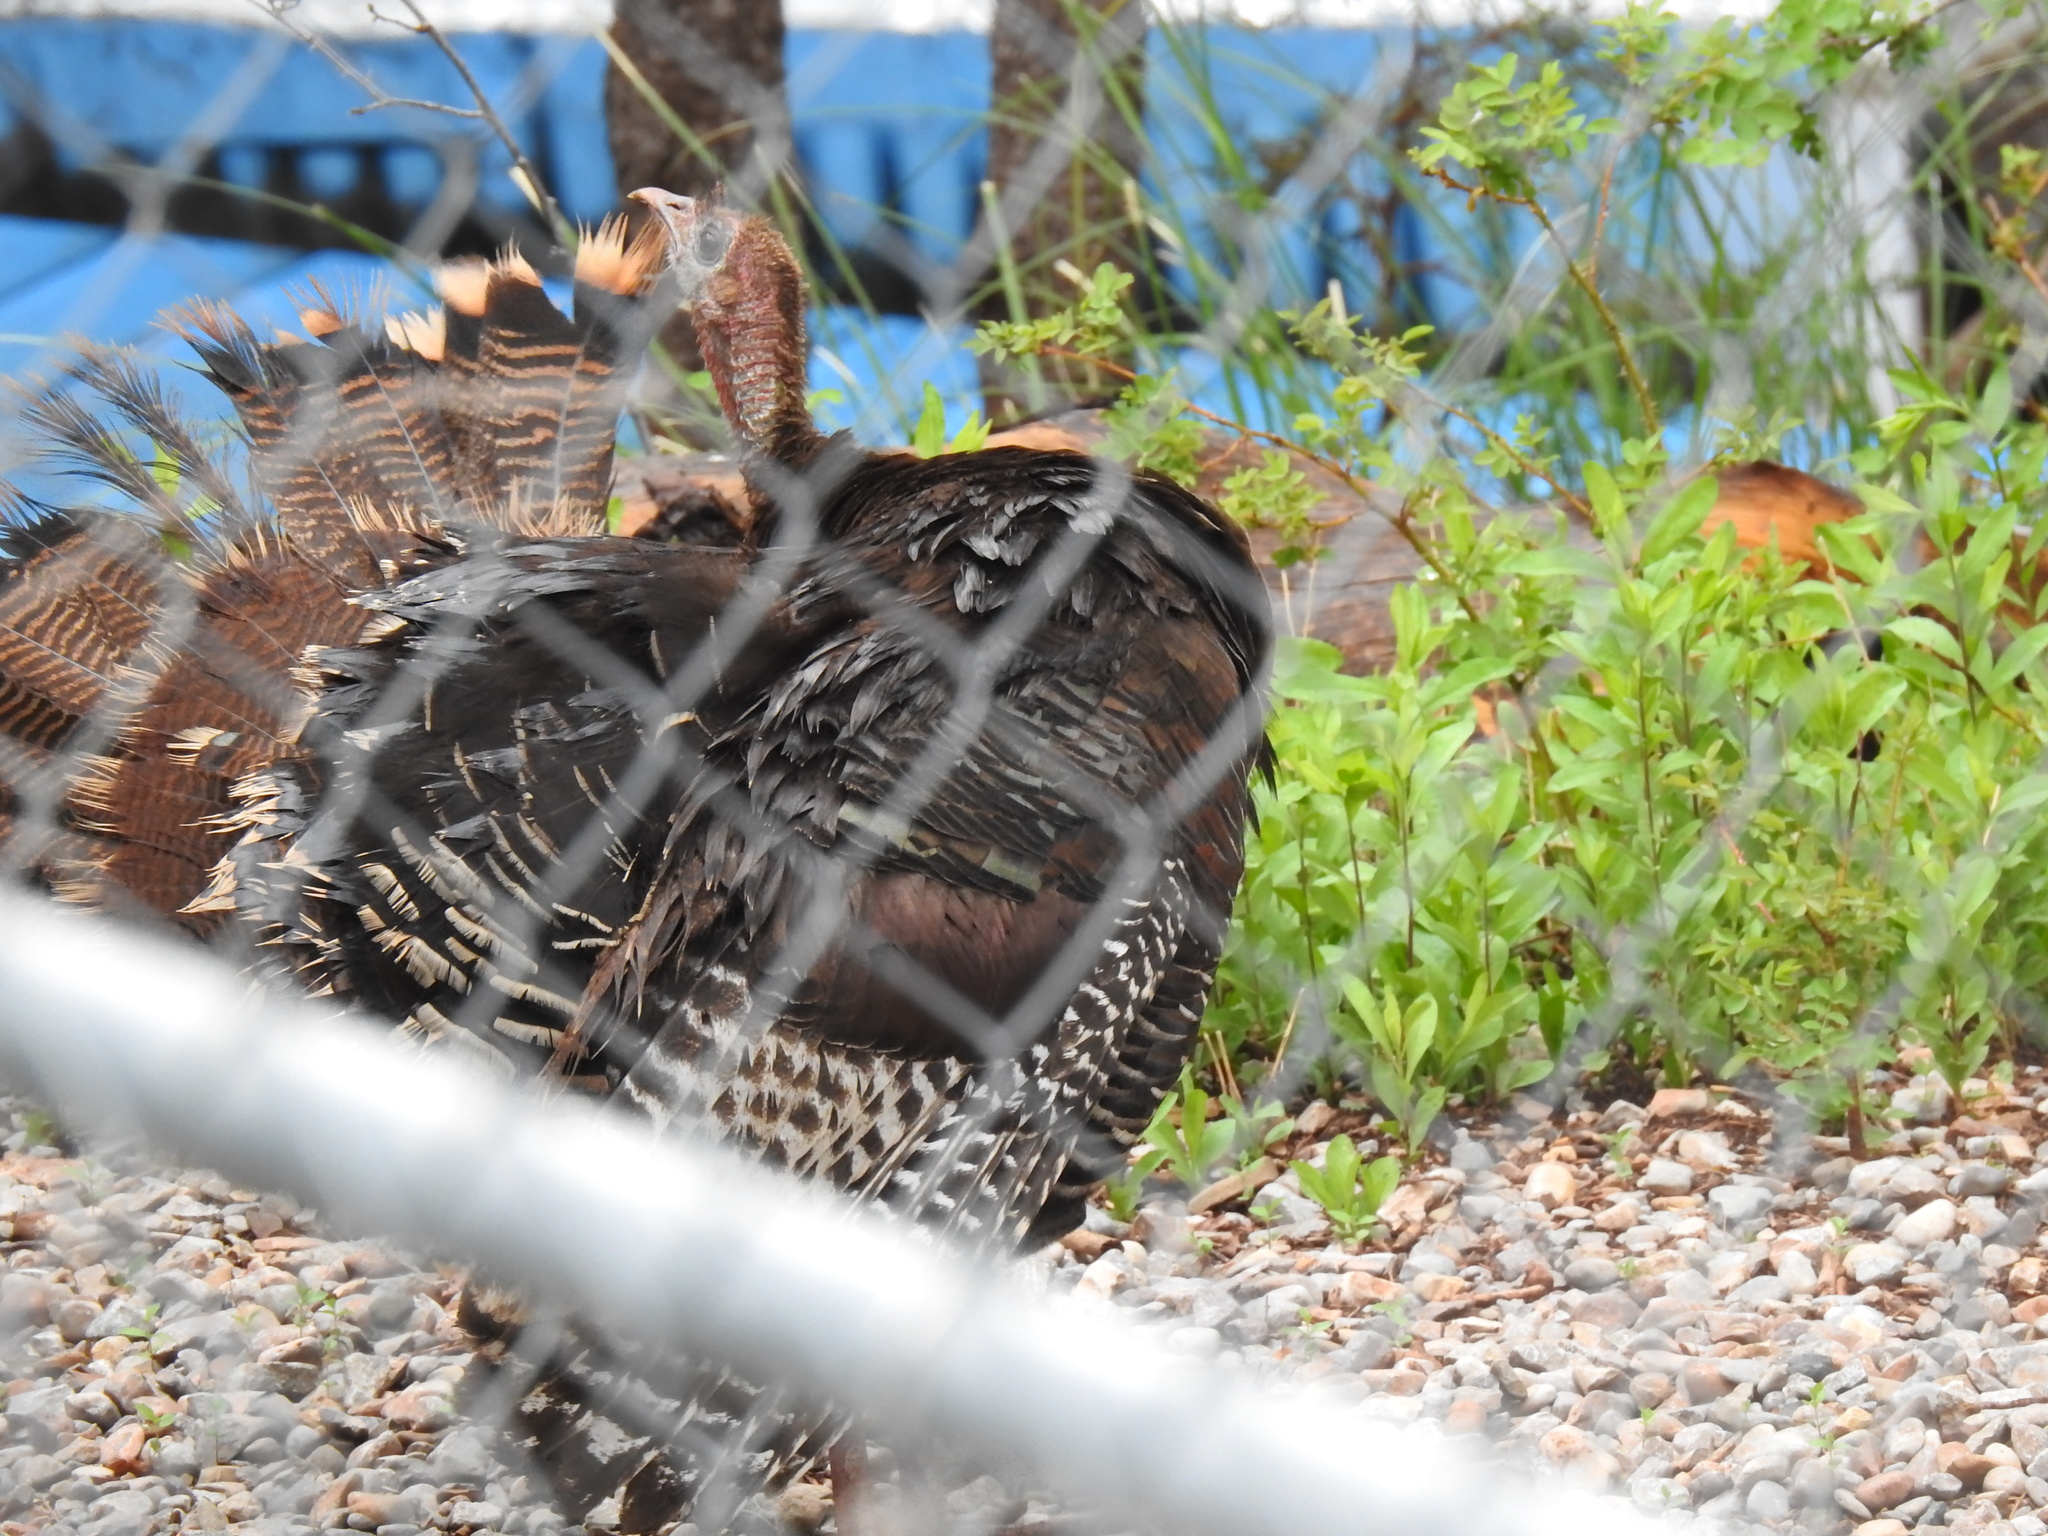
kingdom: Animalia
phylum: Chordata
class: Aves
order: Galliformes
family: Phasianidae
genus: Meleagris
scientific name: Meleagris gallopavo
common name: Wild turkey
